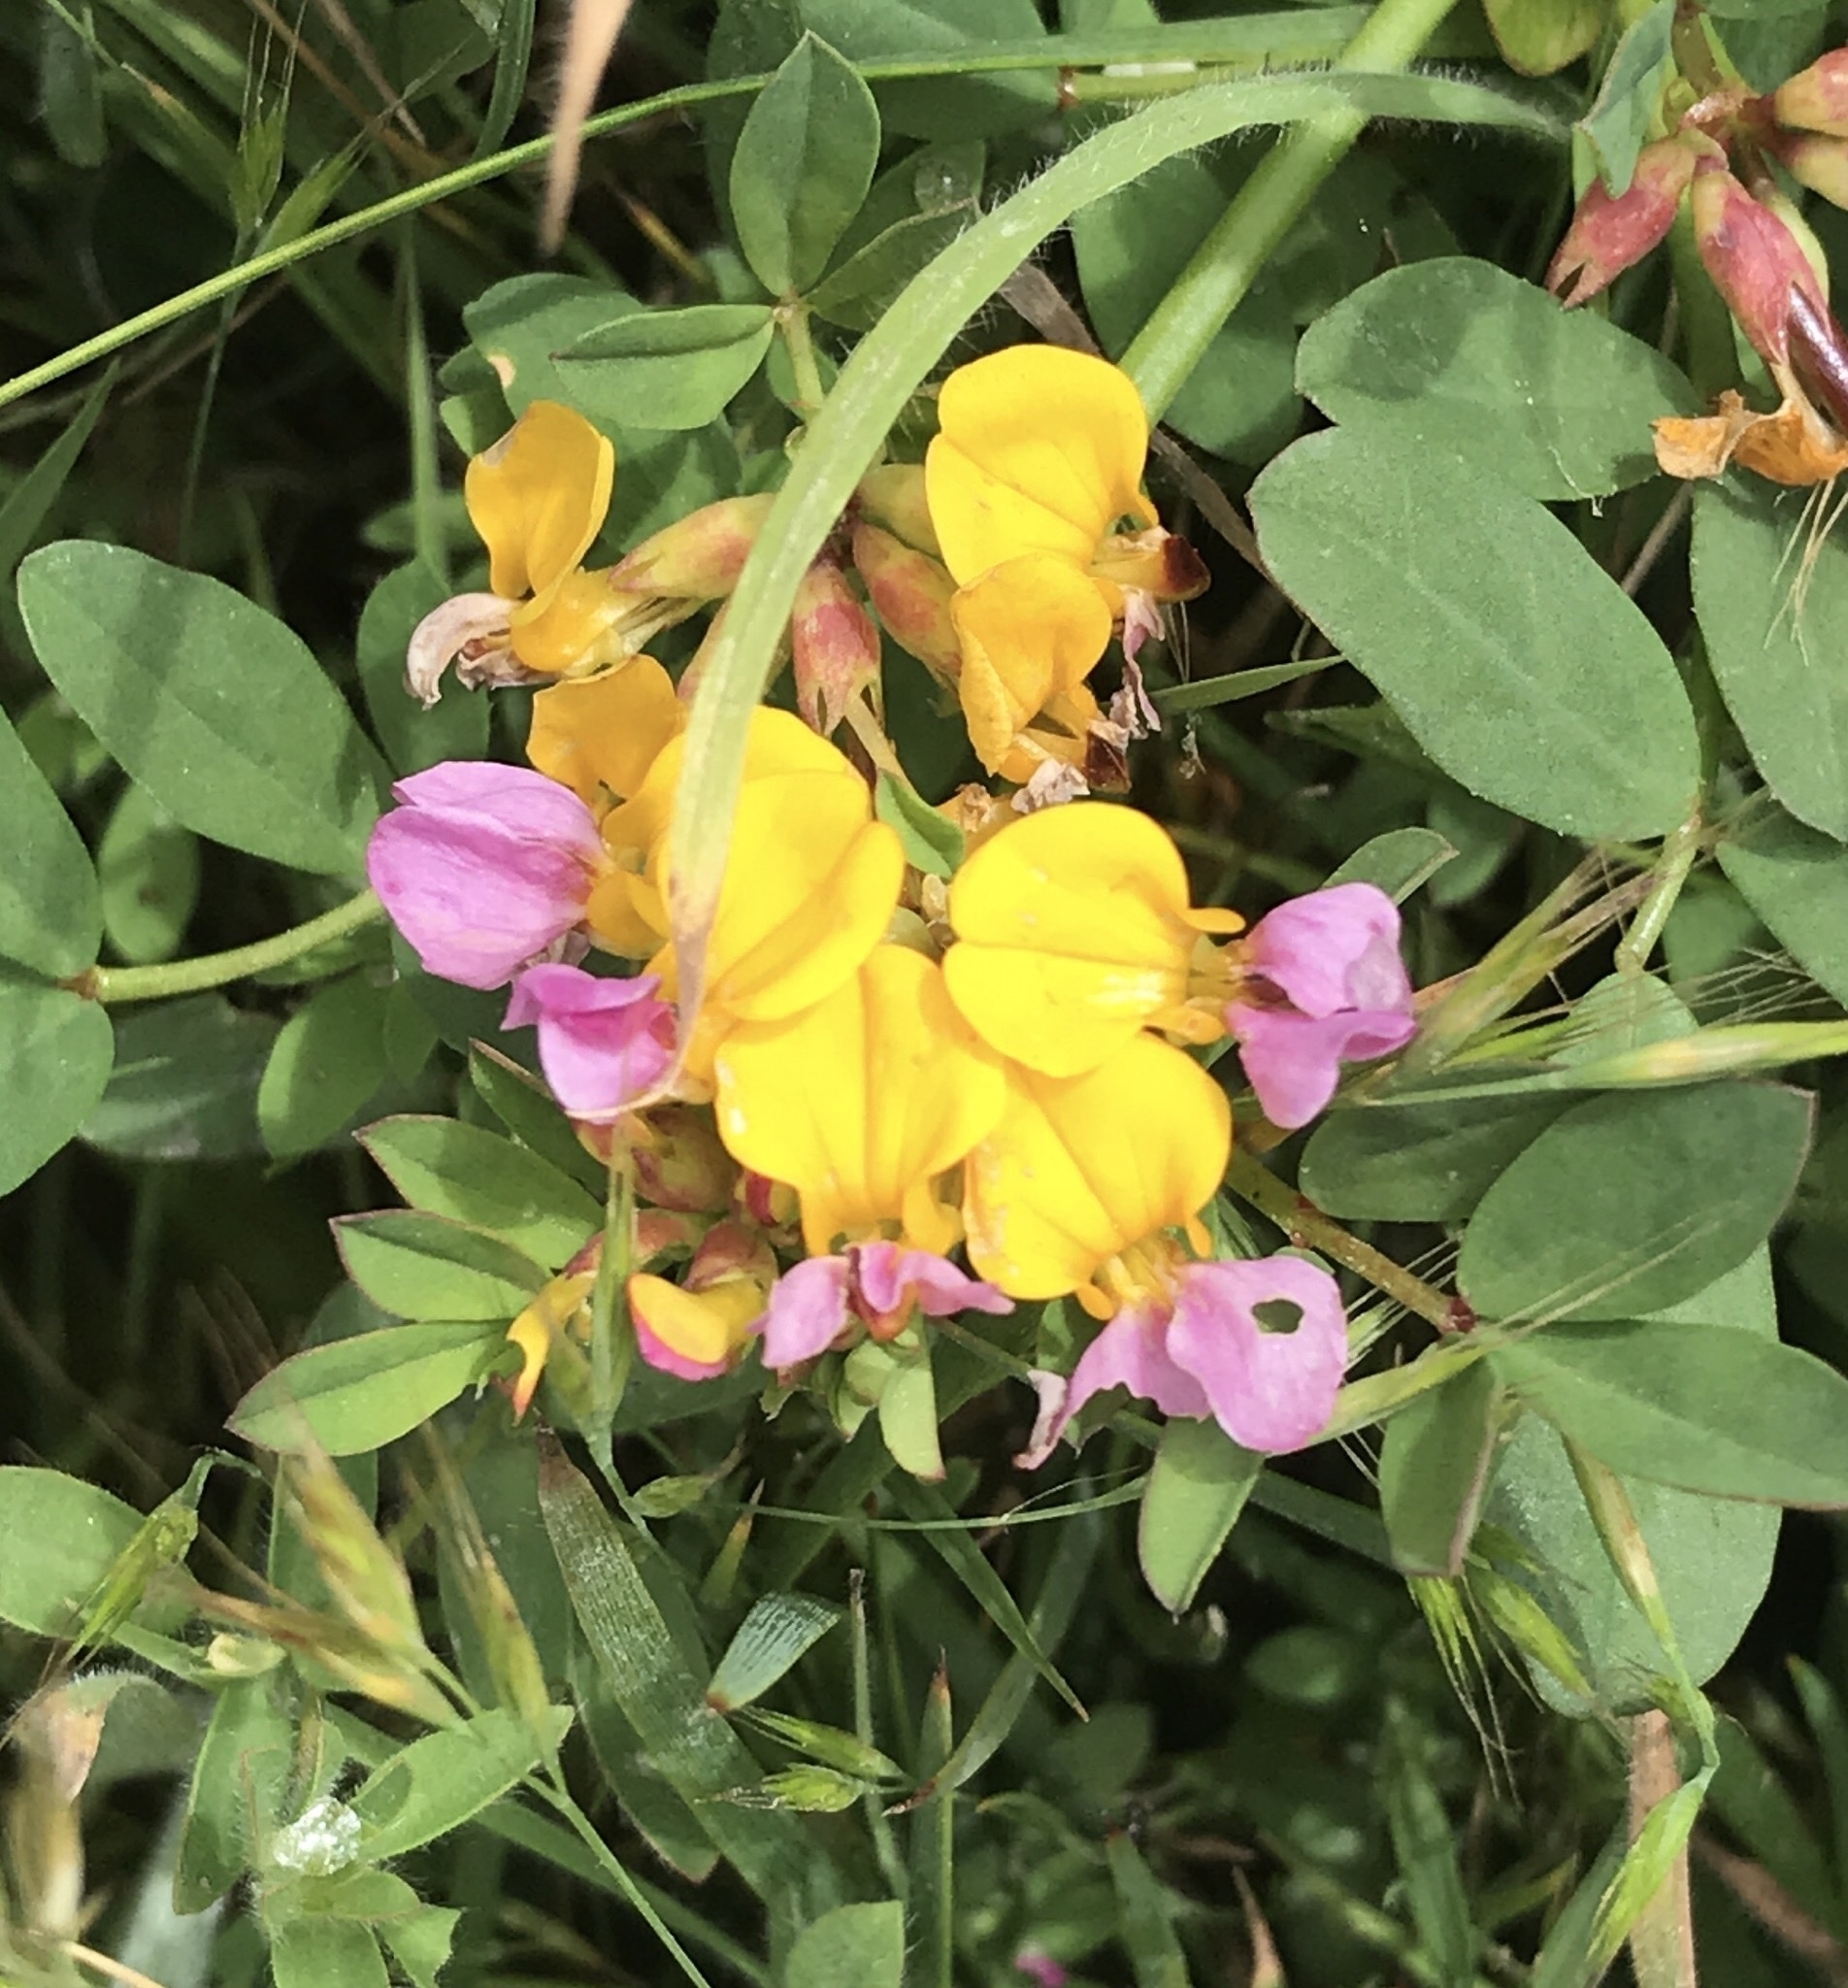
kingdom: Plantae
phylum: Tracheophyta
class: Magnoliopsida
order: Fabales
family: Fabaceae
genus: Hosackia
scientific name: Hosackia gracilis
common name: Seaside bird's-foot lotus
